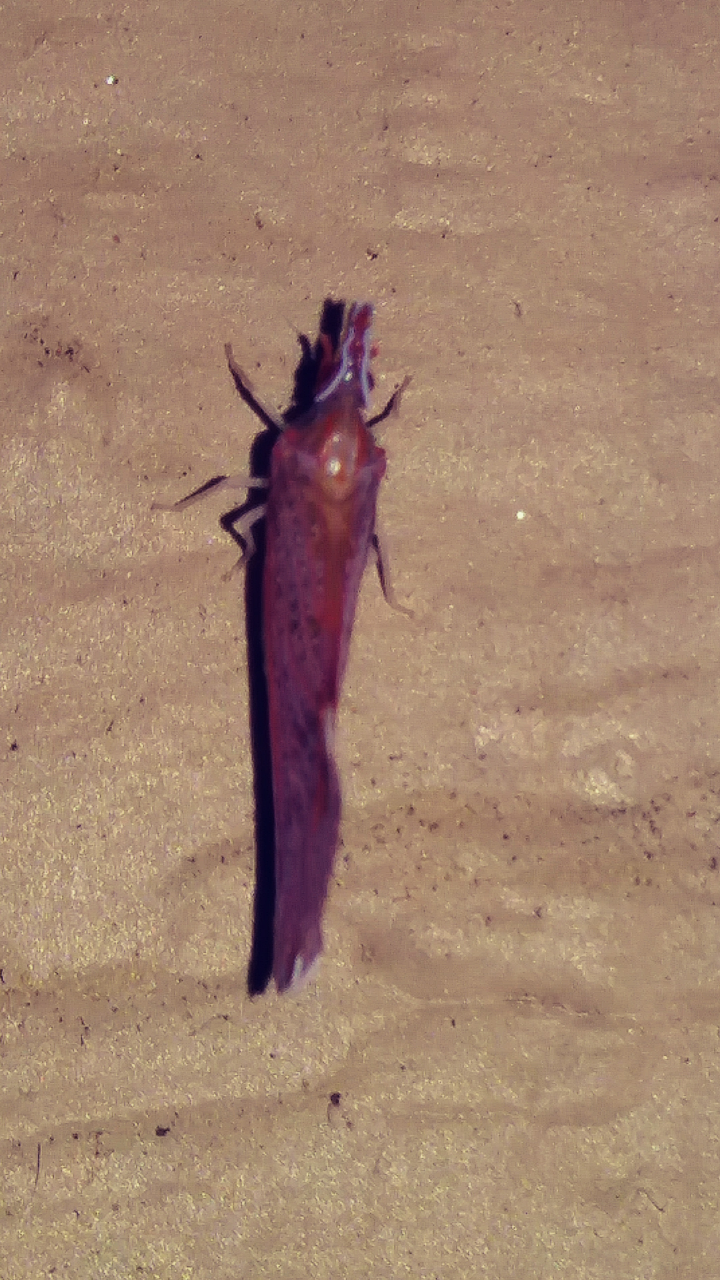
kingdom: Animalia
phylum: Arthropoda
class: Insecta
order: Hemiptera
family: Derbidae
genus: Apache
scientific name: Apache degeeri
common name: Red-fanned planthopper
